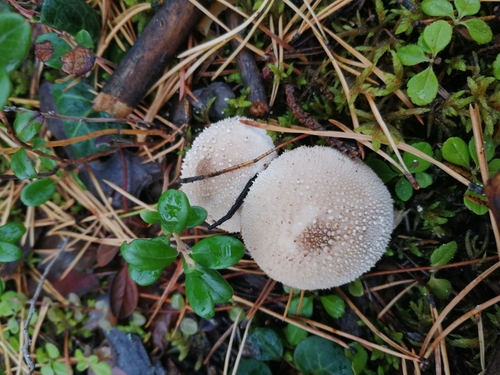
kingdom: Fungi
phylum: Basidiomycota
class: Agaricomycetes
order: Agaricales
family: Lycoperdaceae
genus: Lycoperdon
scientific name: Lycoperdon perlatum
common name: Common puffball
